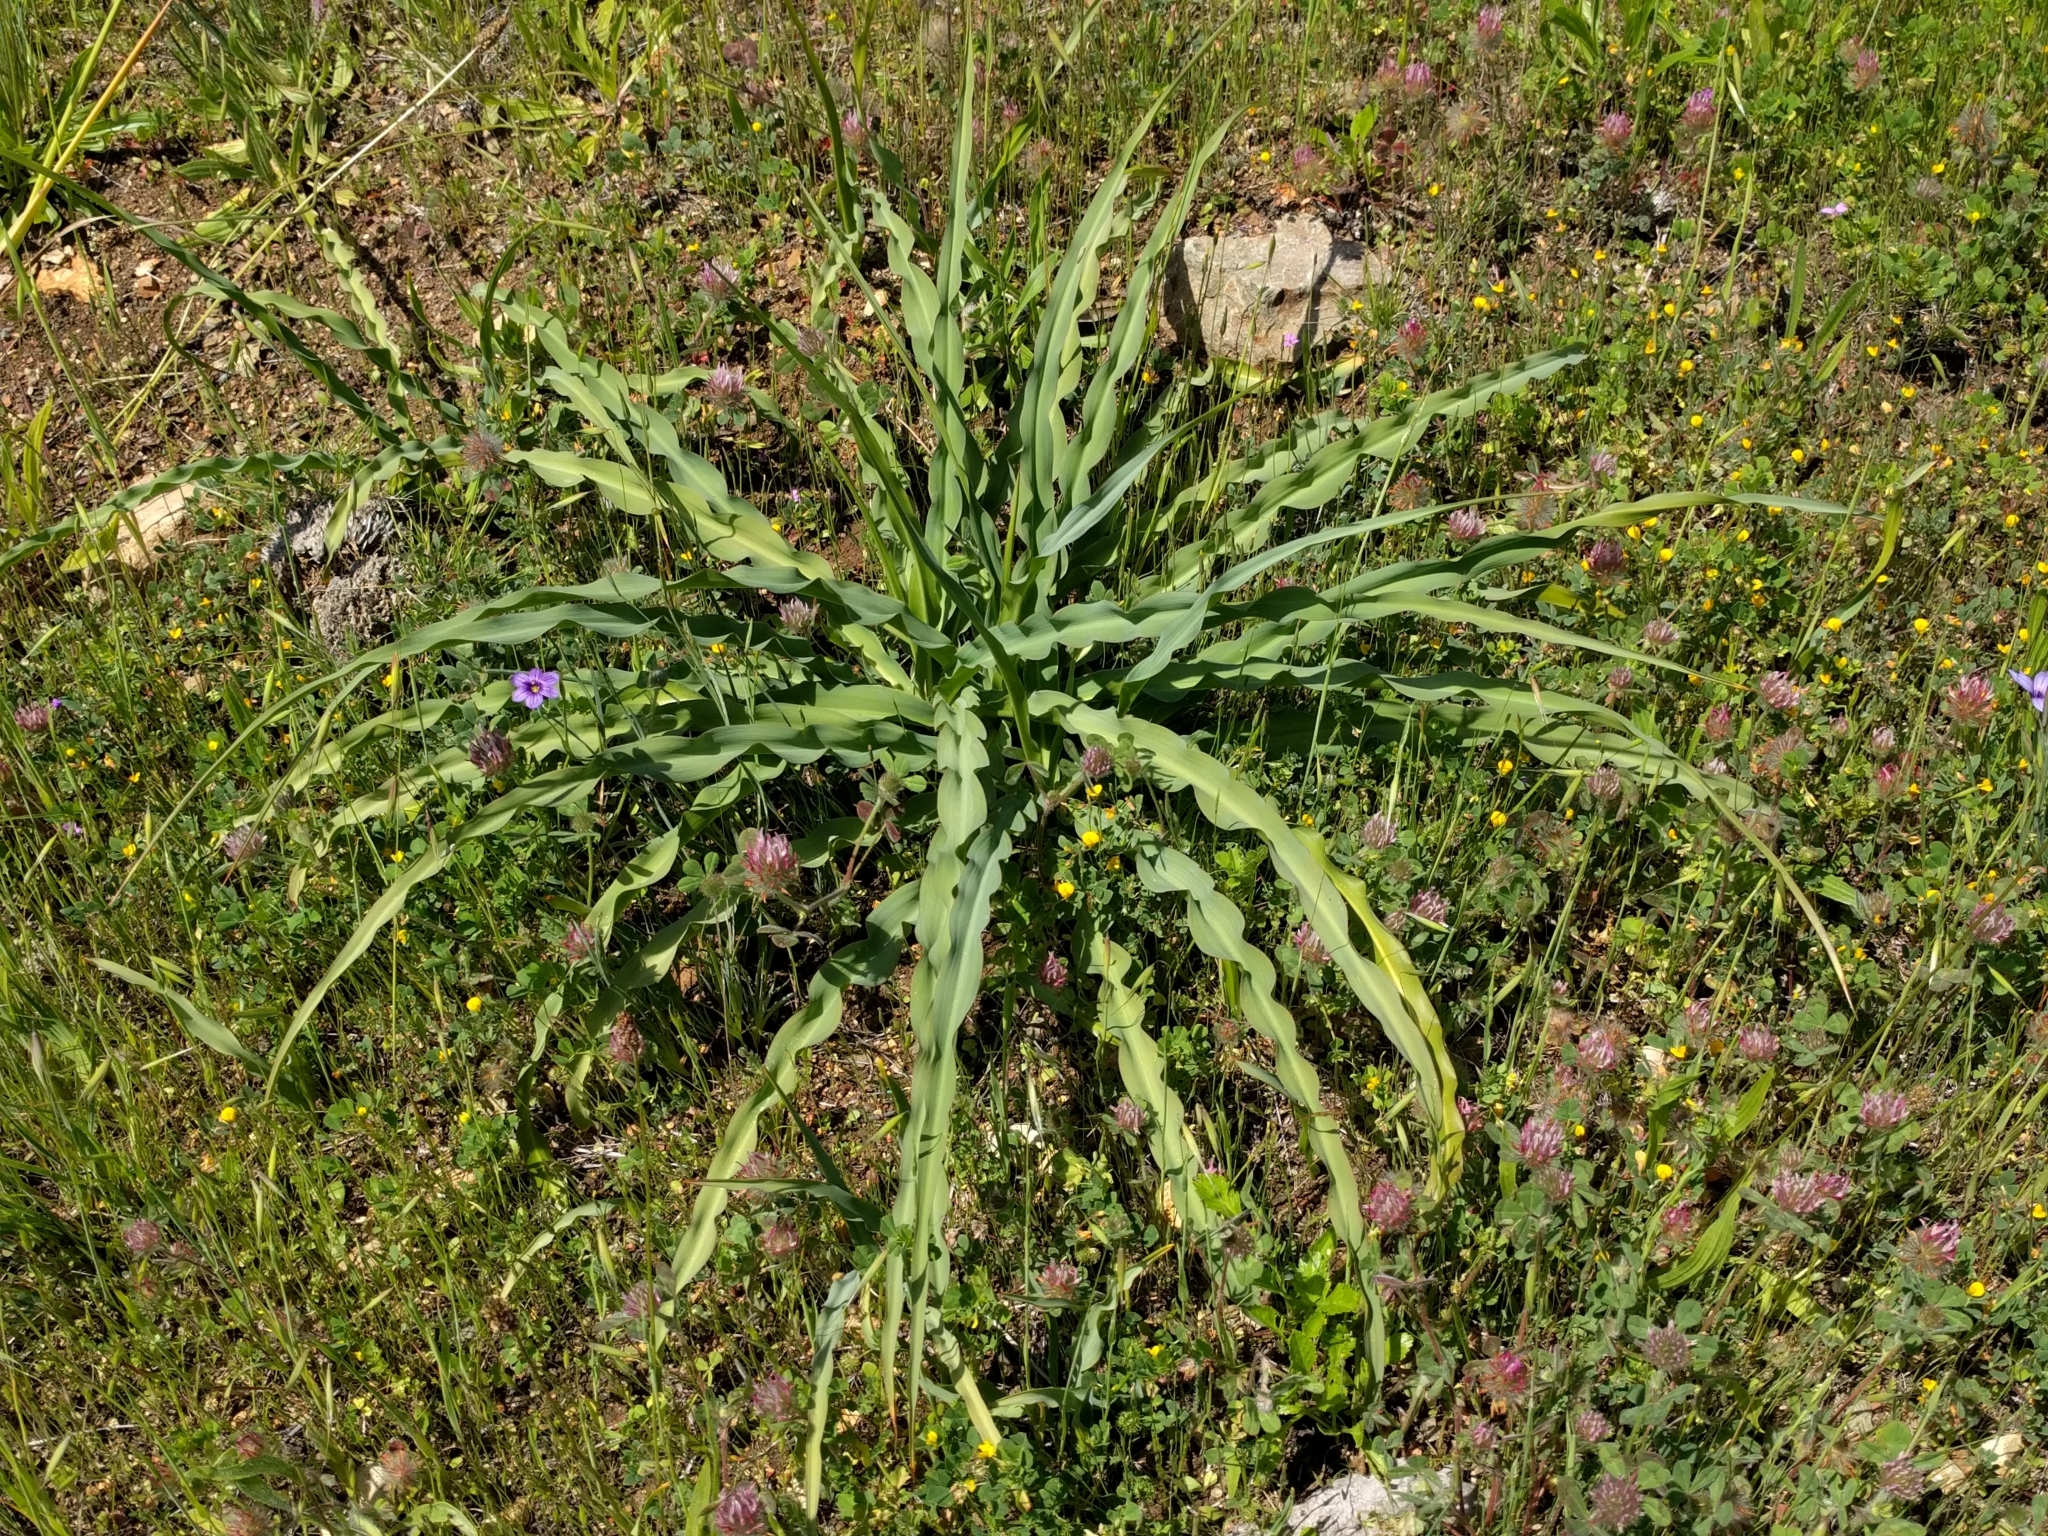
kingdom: Plantae
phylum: Tracheophyta
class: Liliopsida
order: Asparagales
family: Asparagaceae
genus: Chlorogalum
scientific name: Chlorogalum pomeridianum
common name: Amole
